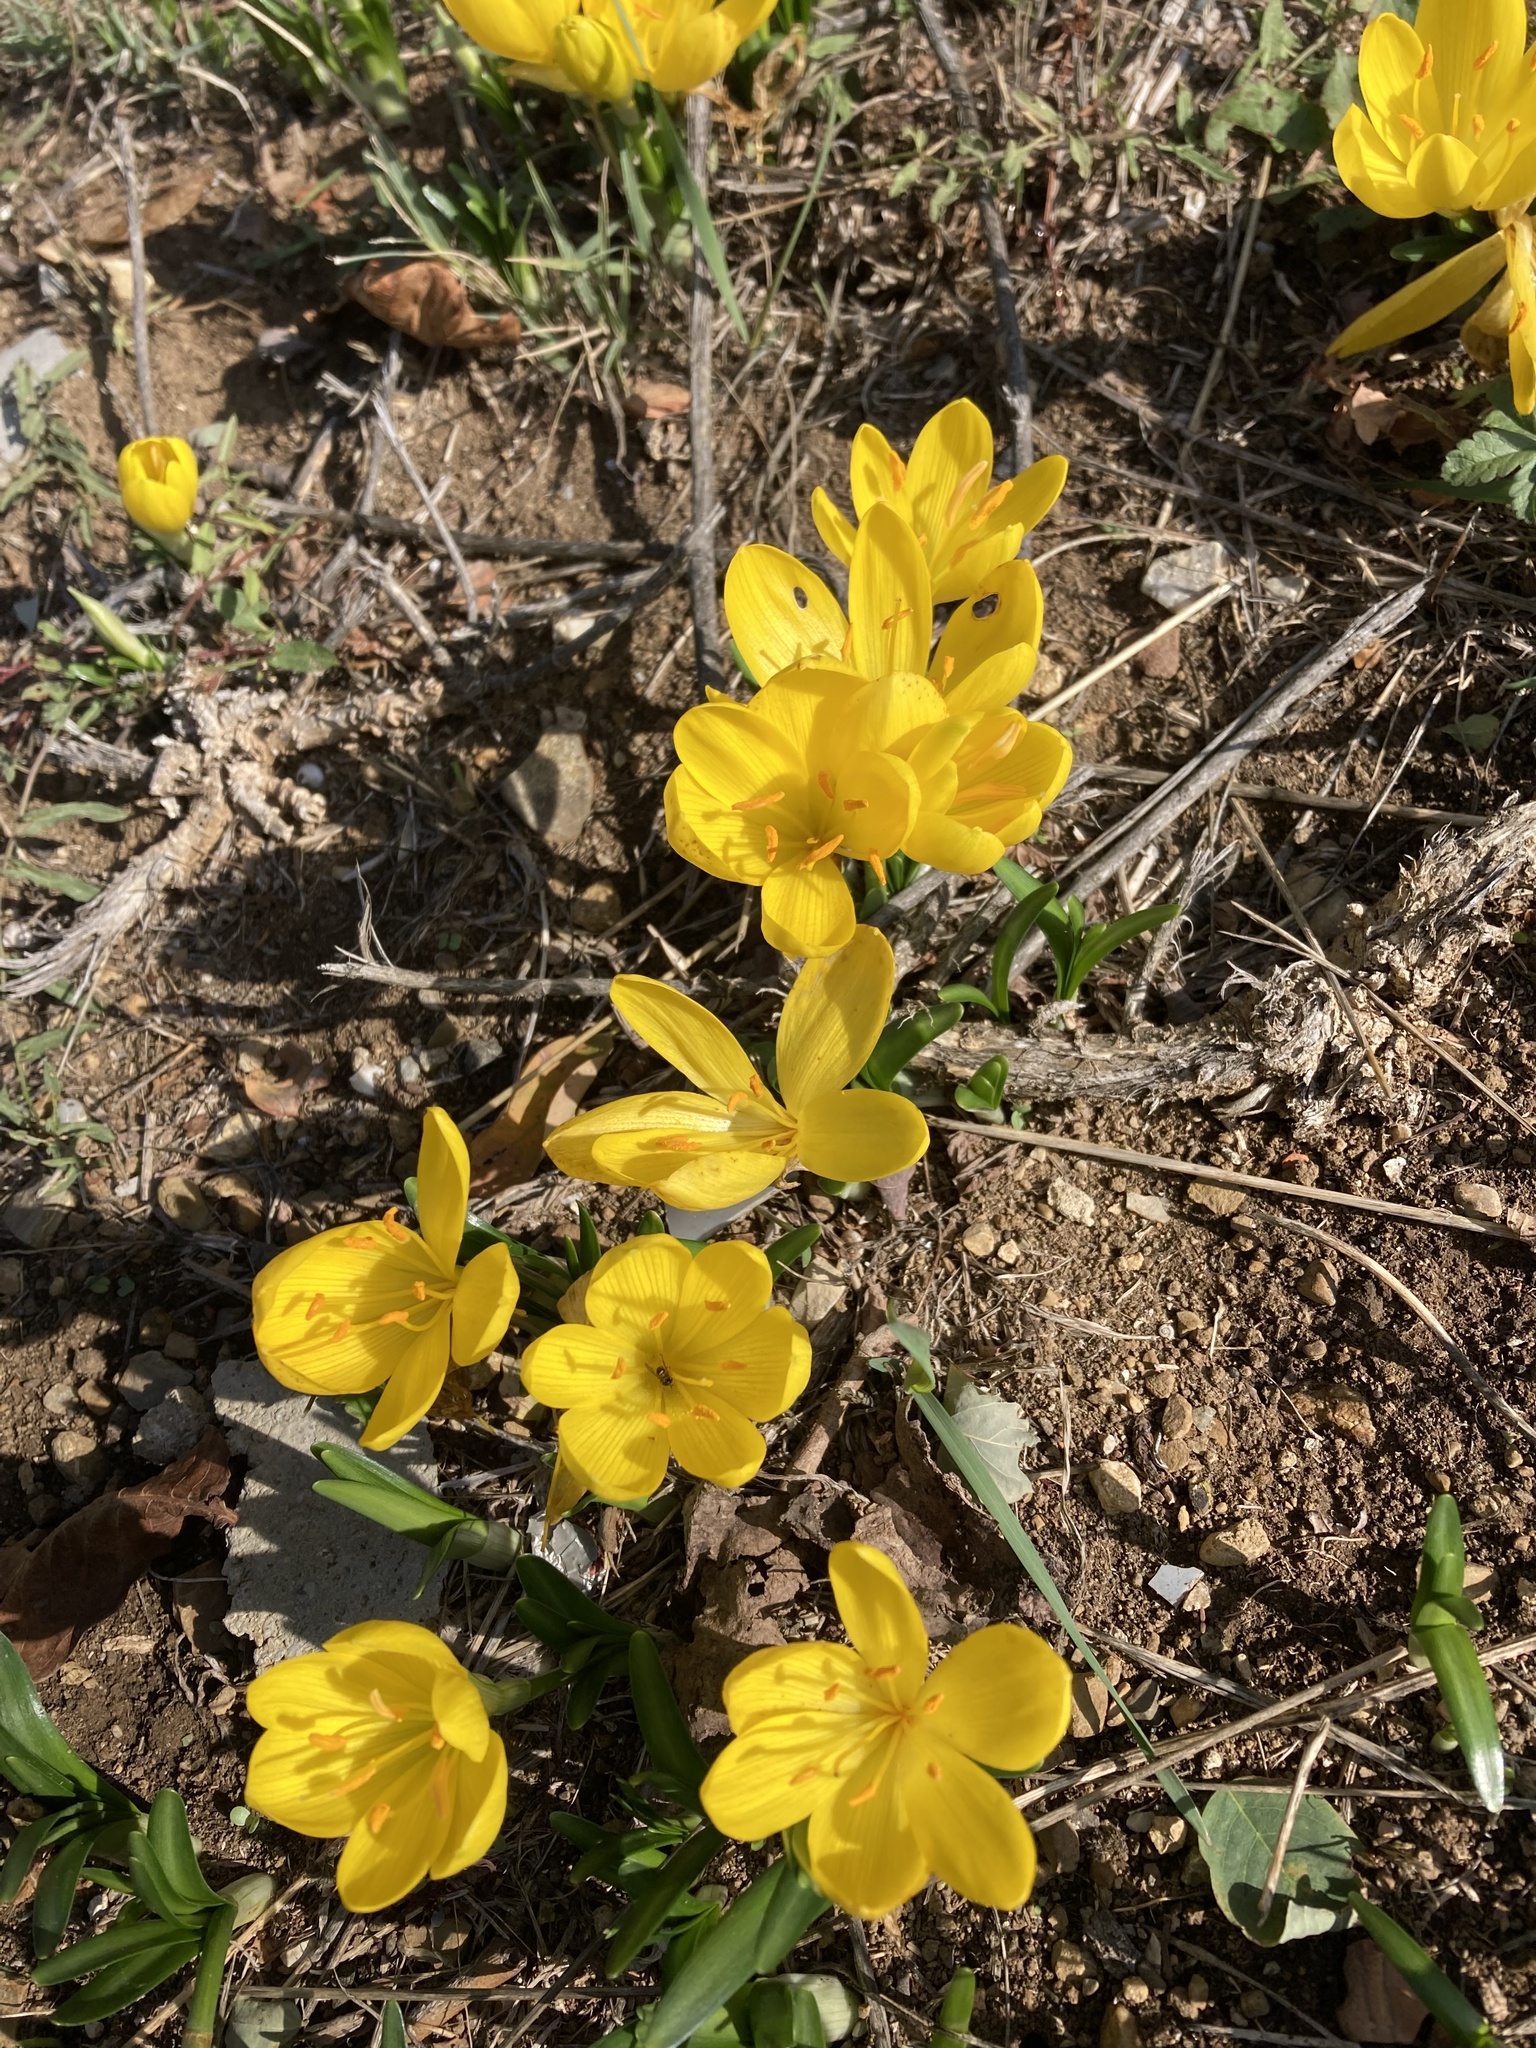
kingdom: Plantae
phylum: Tracheophyta
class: Liliopsida
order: Asparagales
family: Amaryllidaceae
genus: Sternbergia
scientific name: Sternbergia lutea
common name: Winter daffodil
